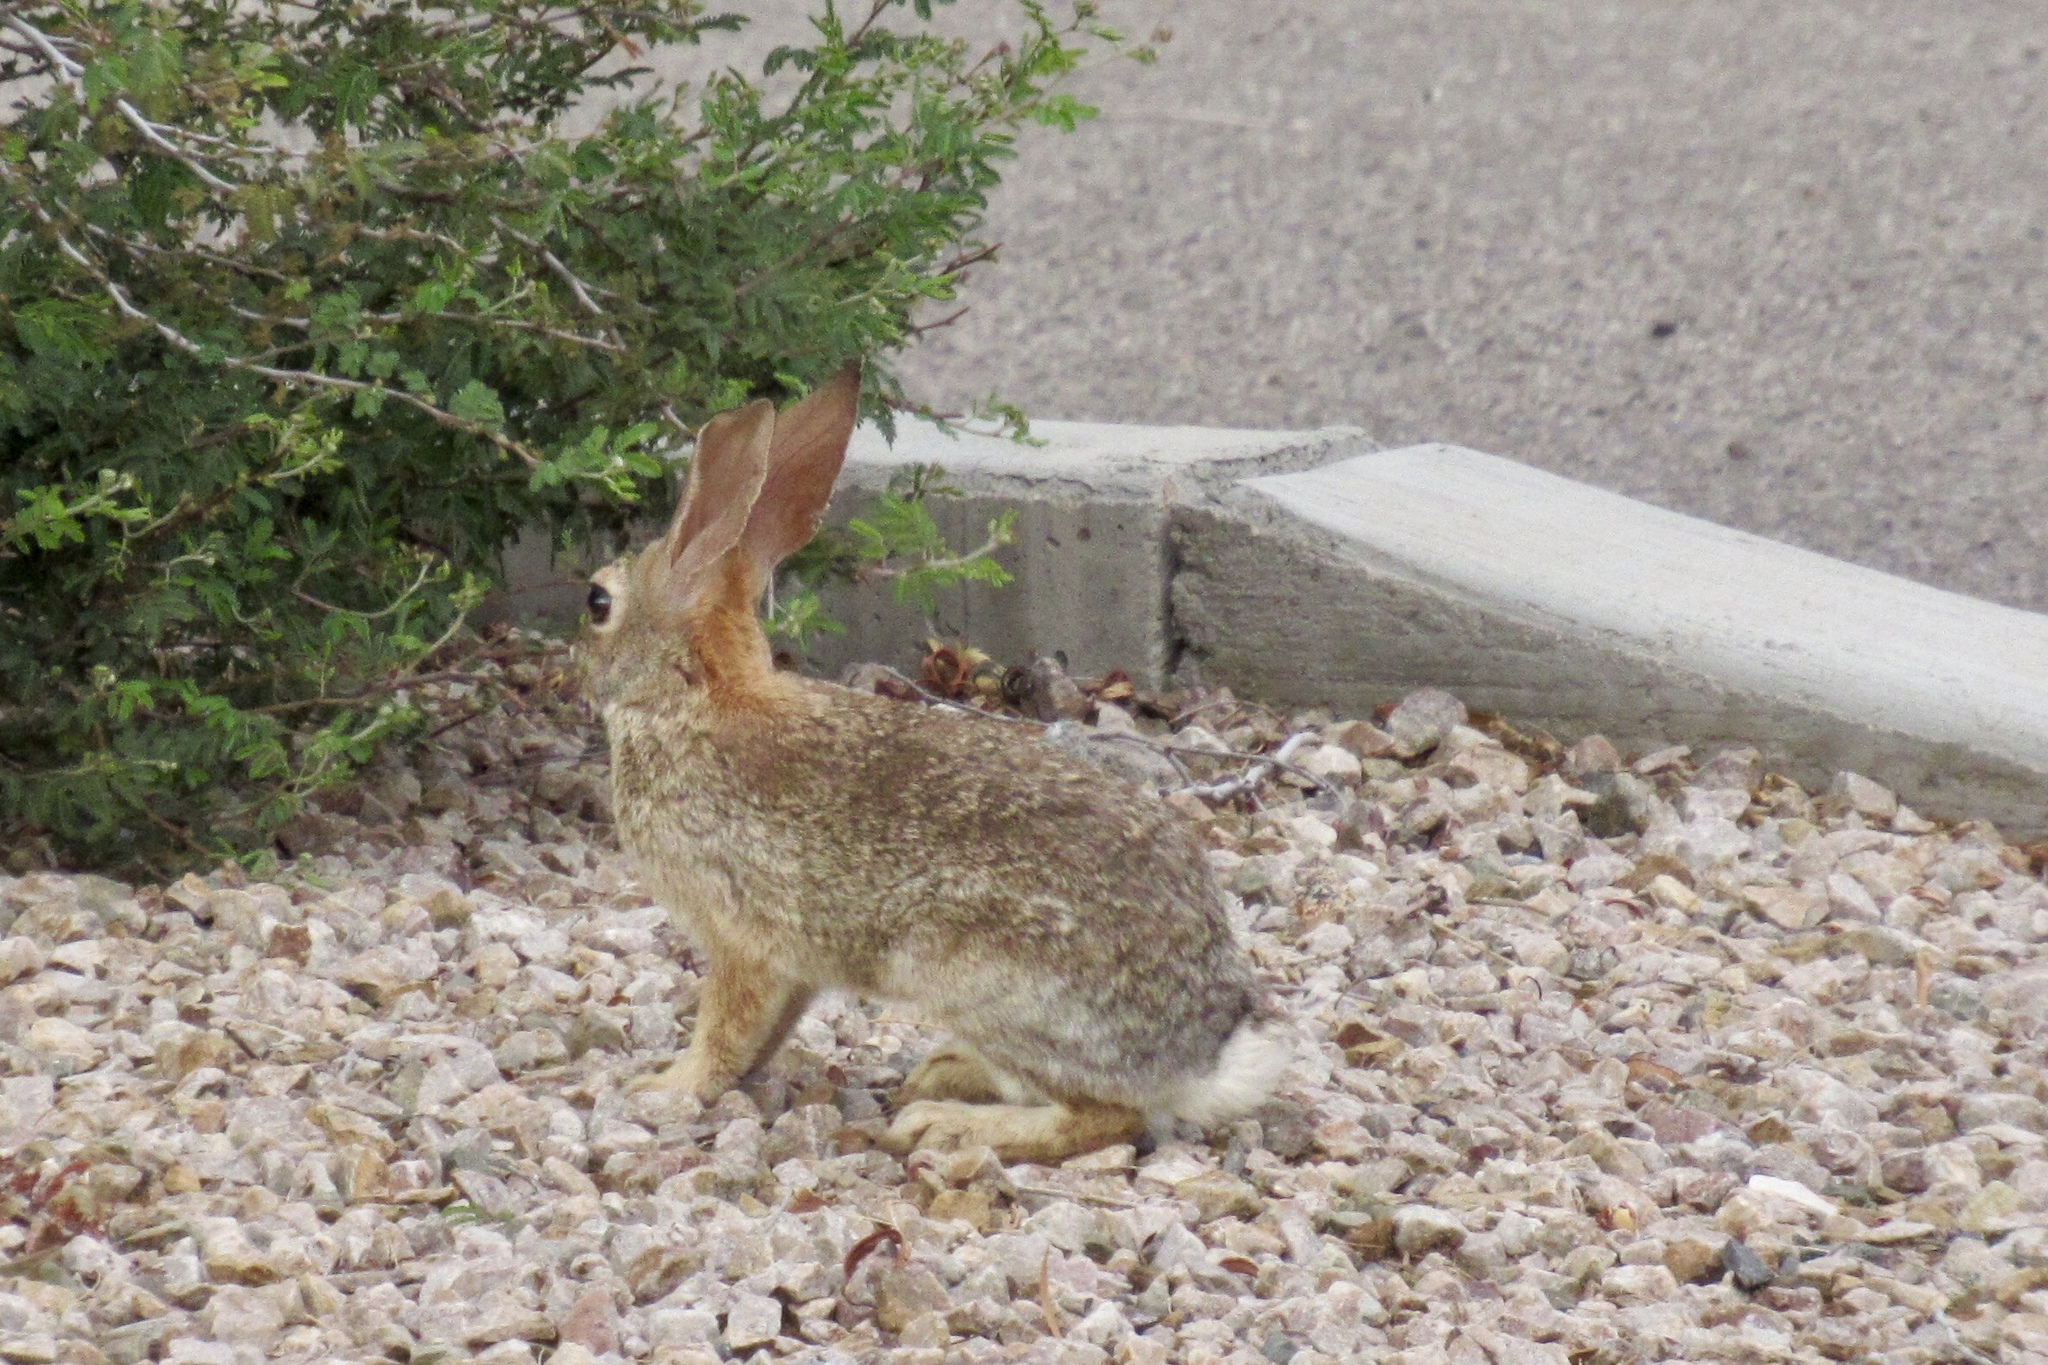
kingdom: Animalia
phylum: Chordata
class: Mammalia
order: Lagomorpha
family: Leporidae
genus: Sylvilagus
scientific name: Sylvilagus audubonii
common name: Desert cottontail
